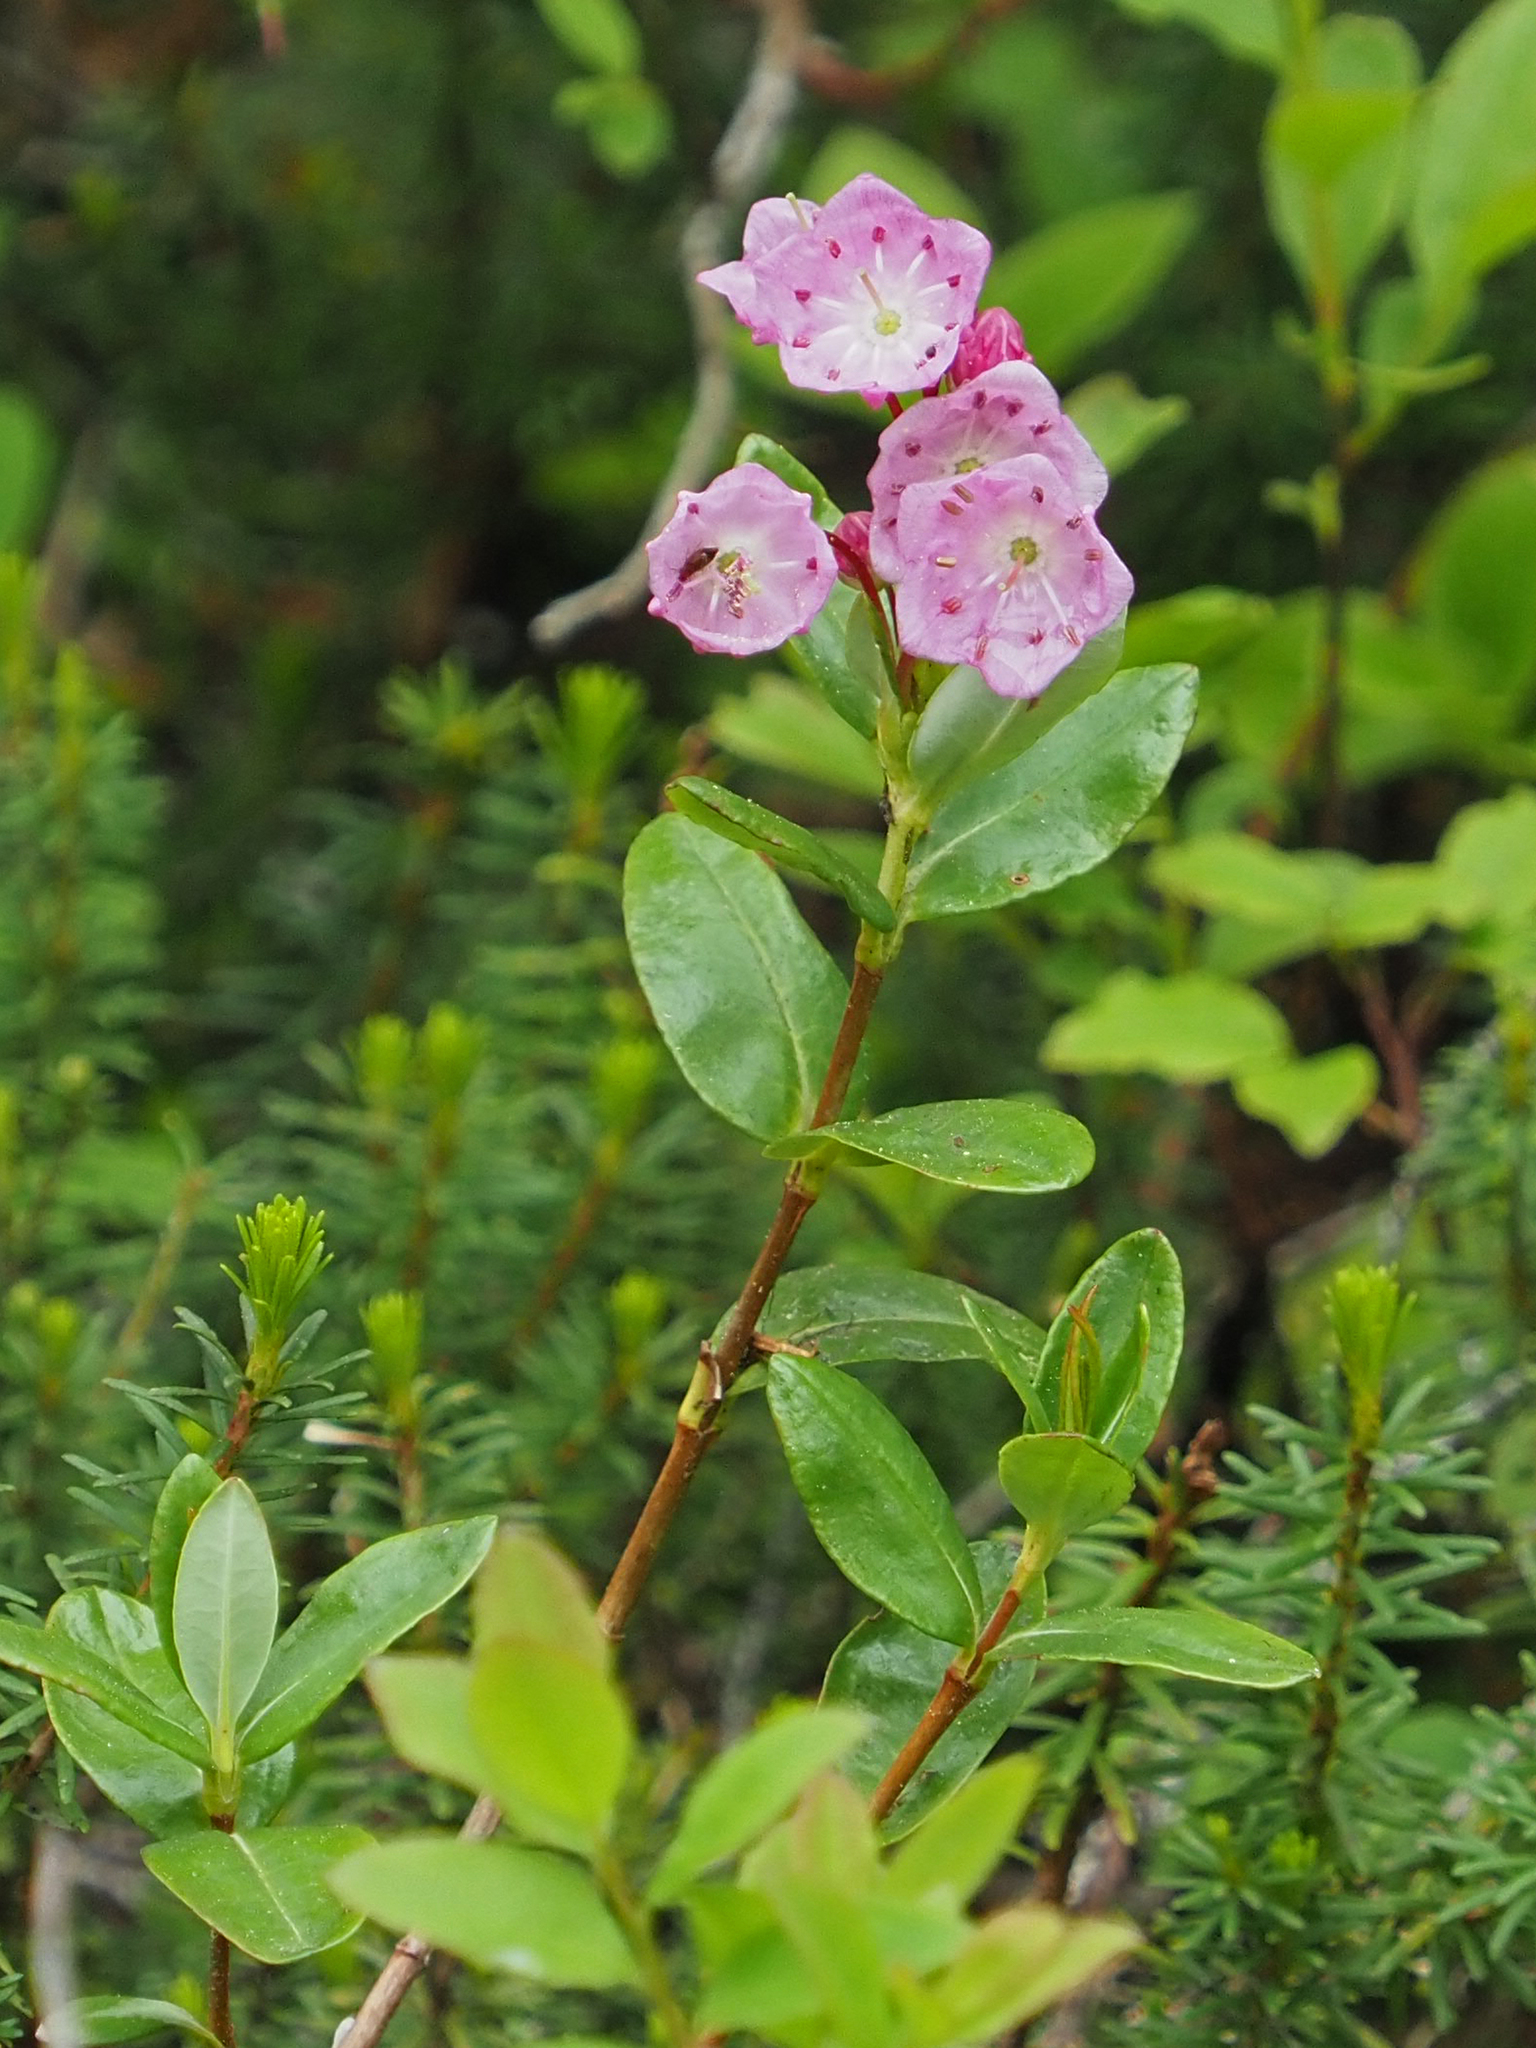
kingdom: Plantae
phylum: Tracheophyta
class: Magnoliopsida
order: Ericales
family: Ericaceae
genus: Kalmia
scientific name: Kalmia microphylla
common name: Alpine bog laurel
